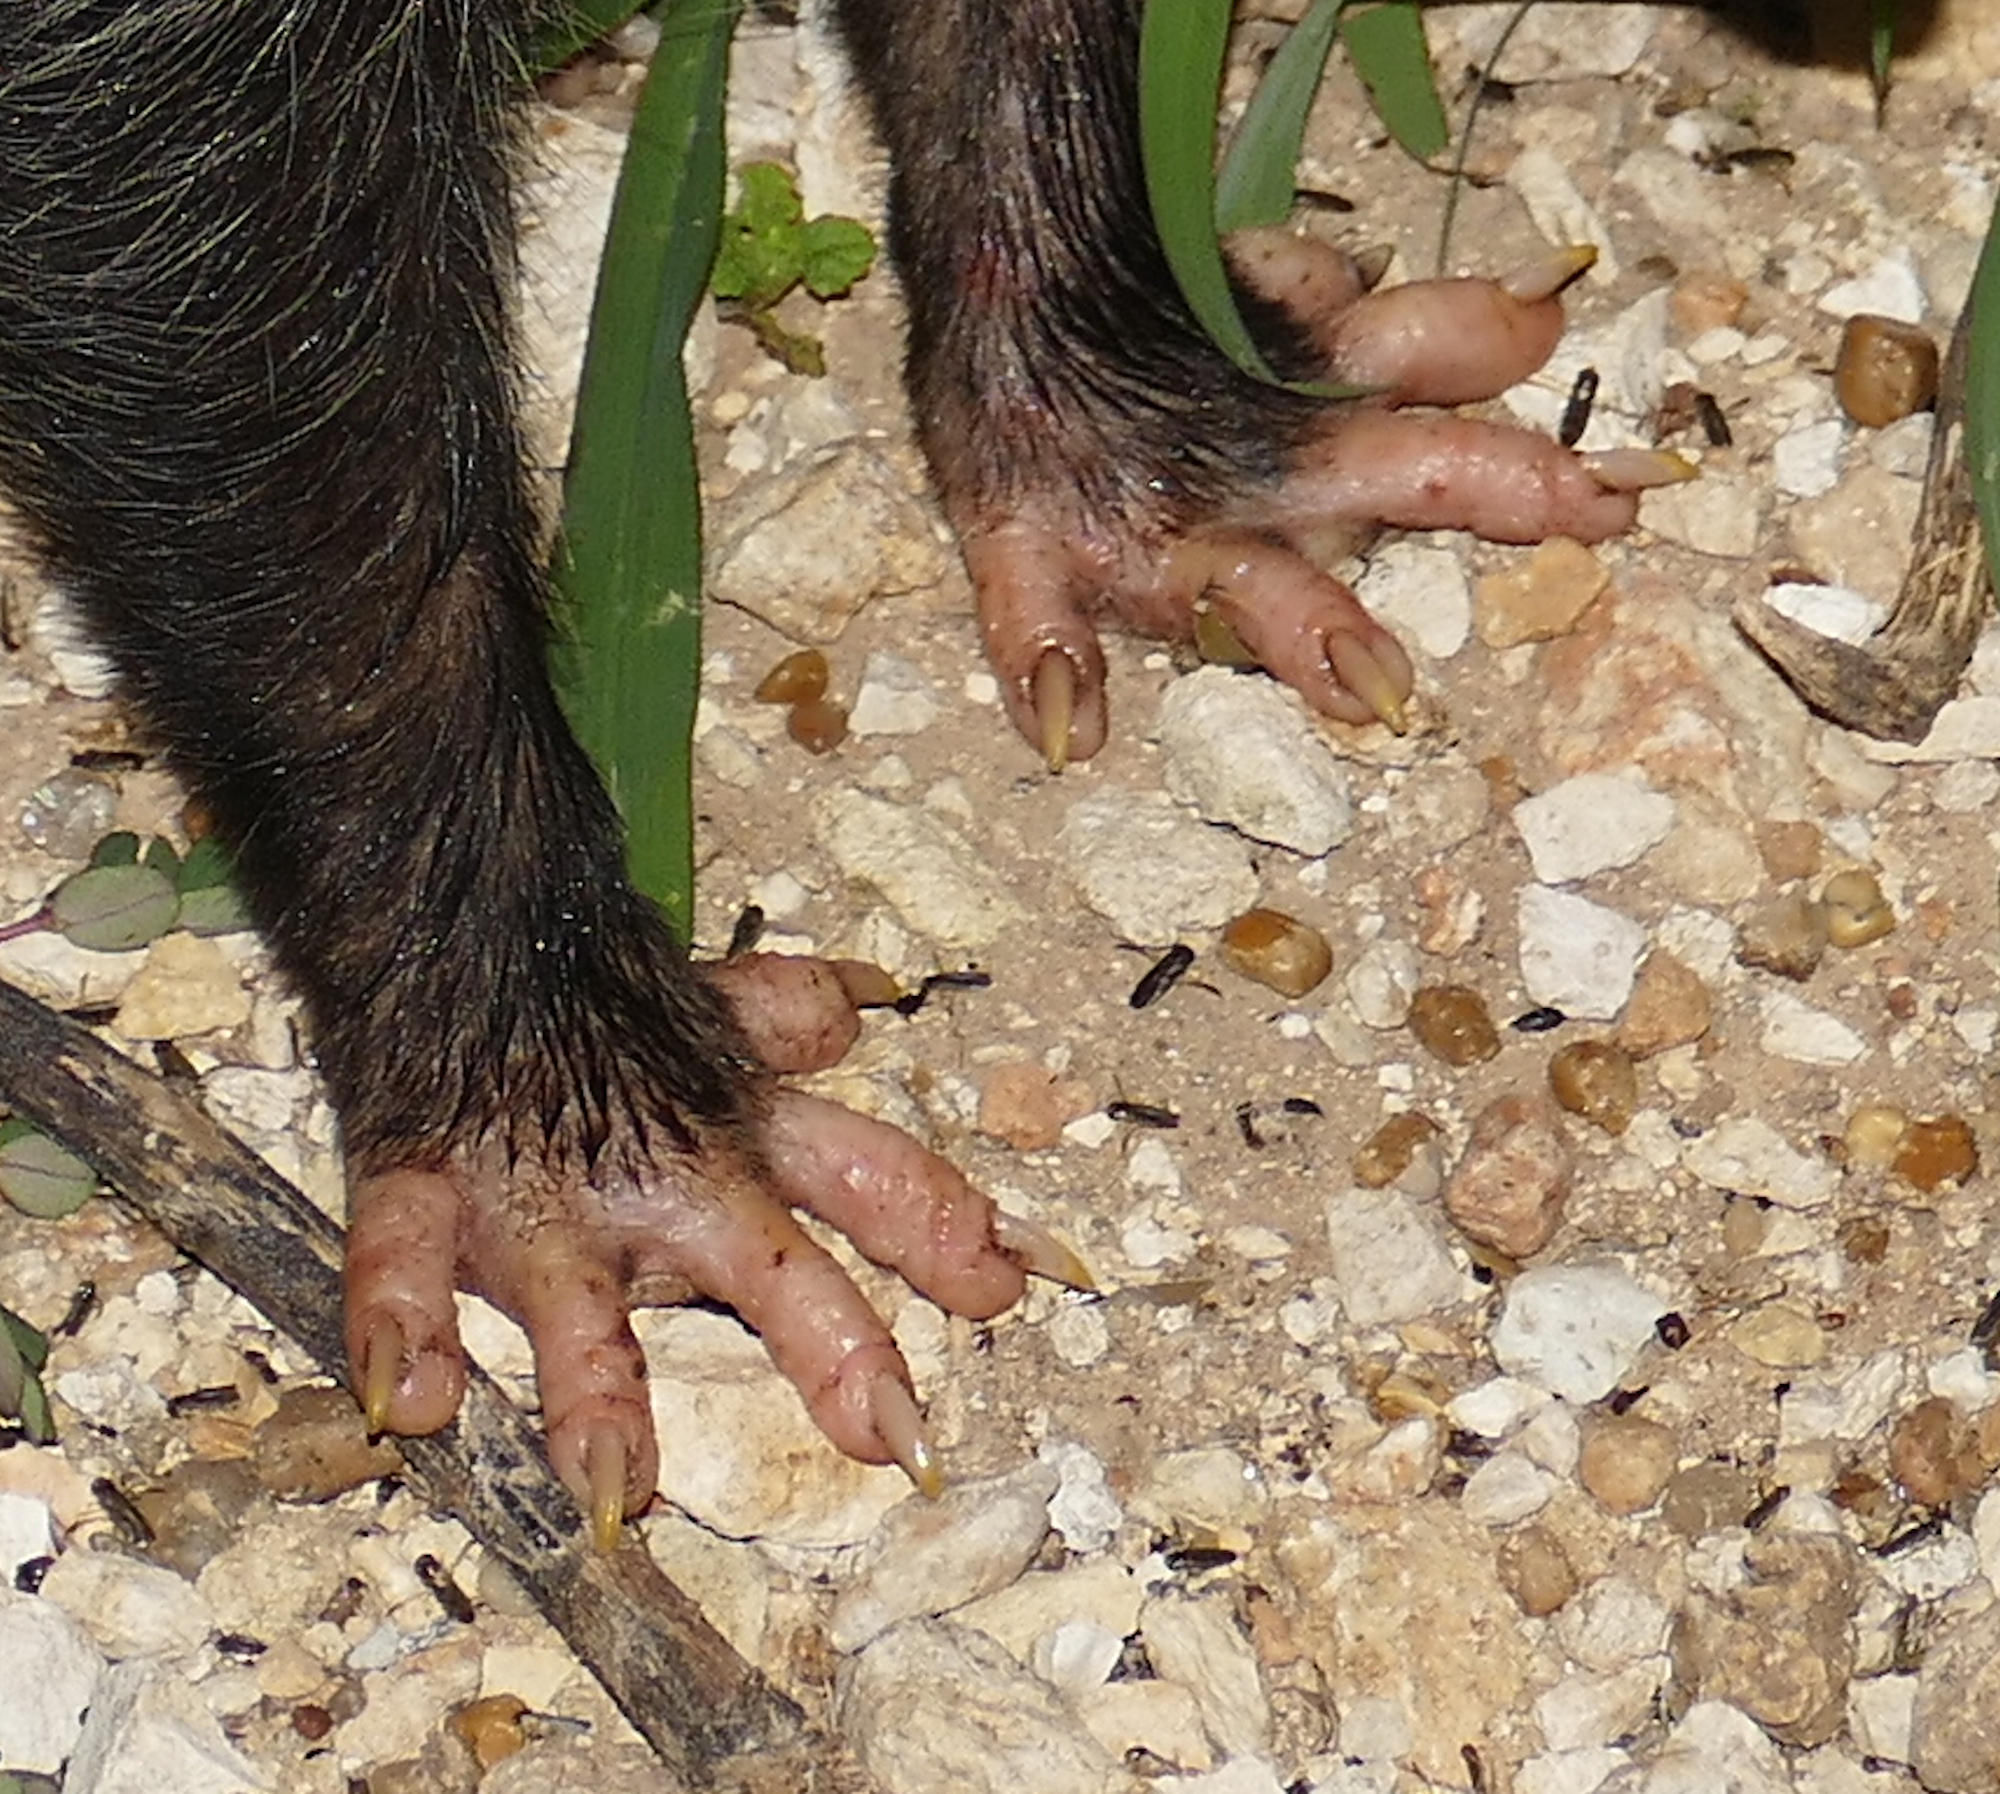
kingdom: Animalia
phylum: Chordata
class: Mammalia
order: Didelphimorphia
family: Didelphidae
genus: Didelphis
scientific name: Didelphis virginiana
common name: Virginia opossum
